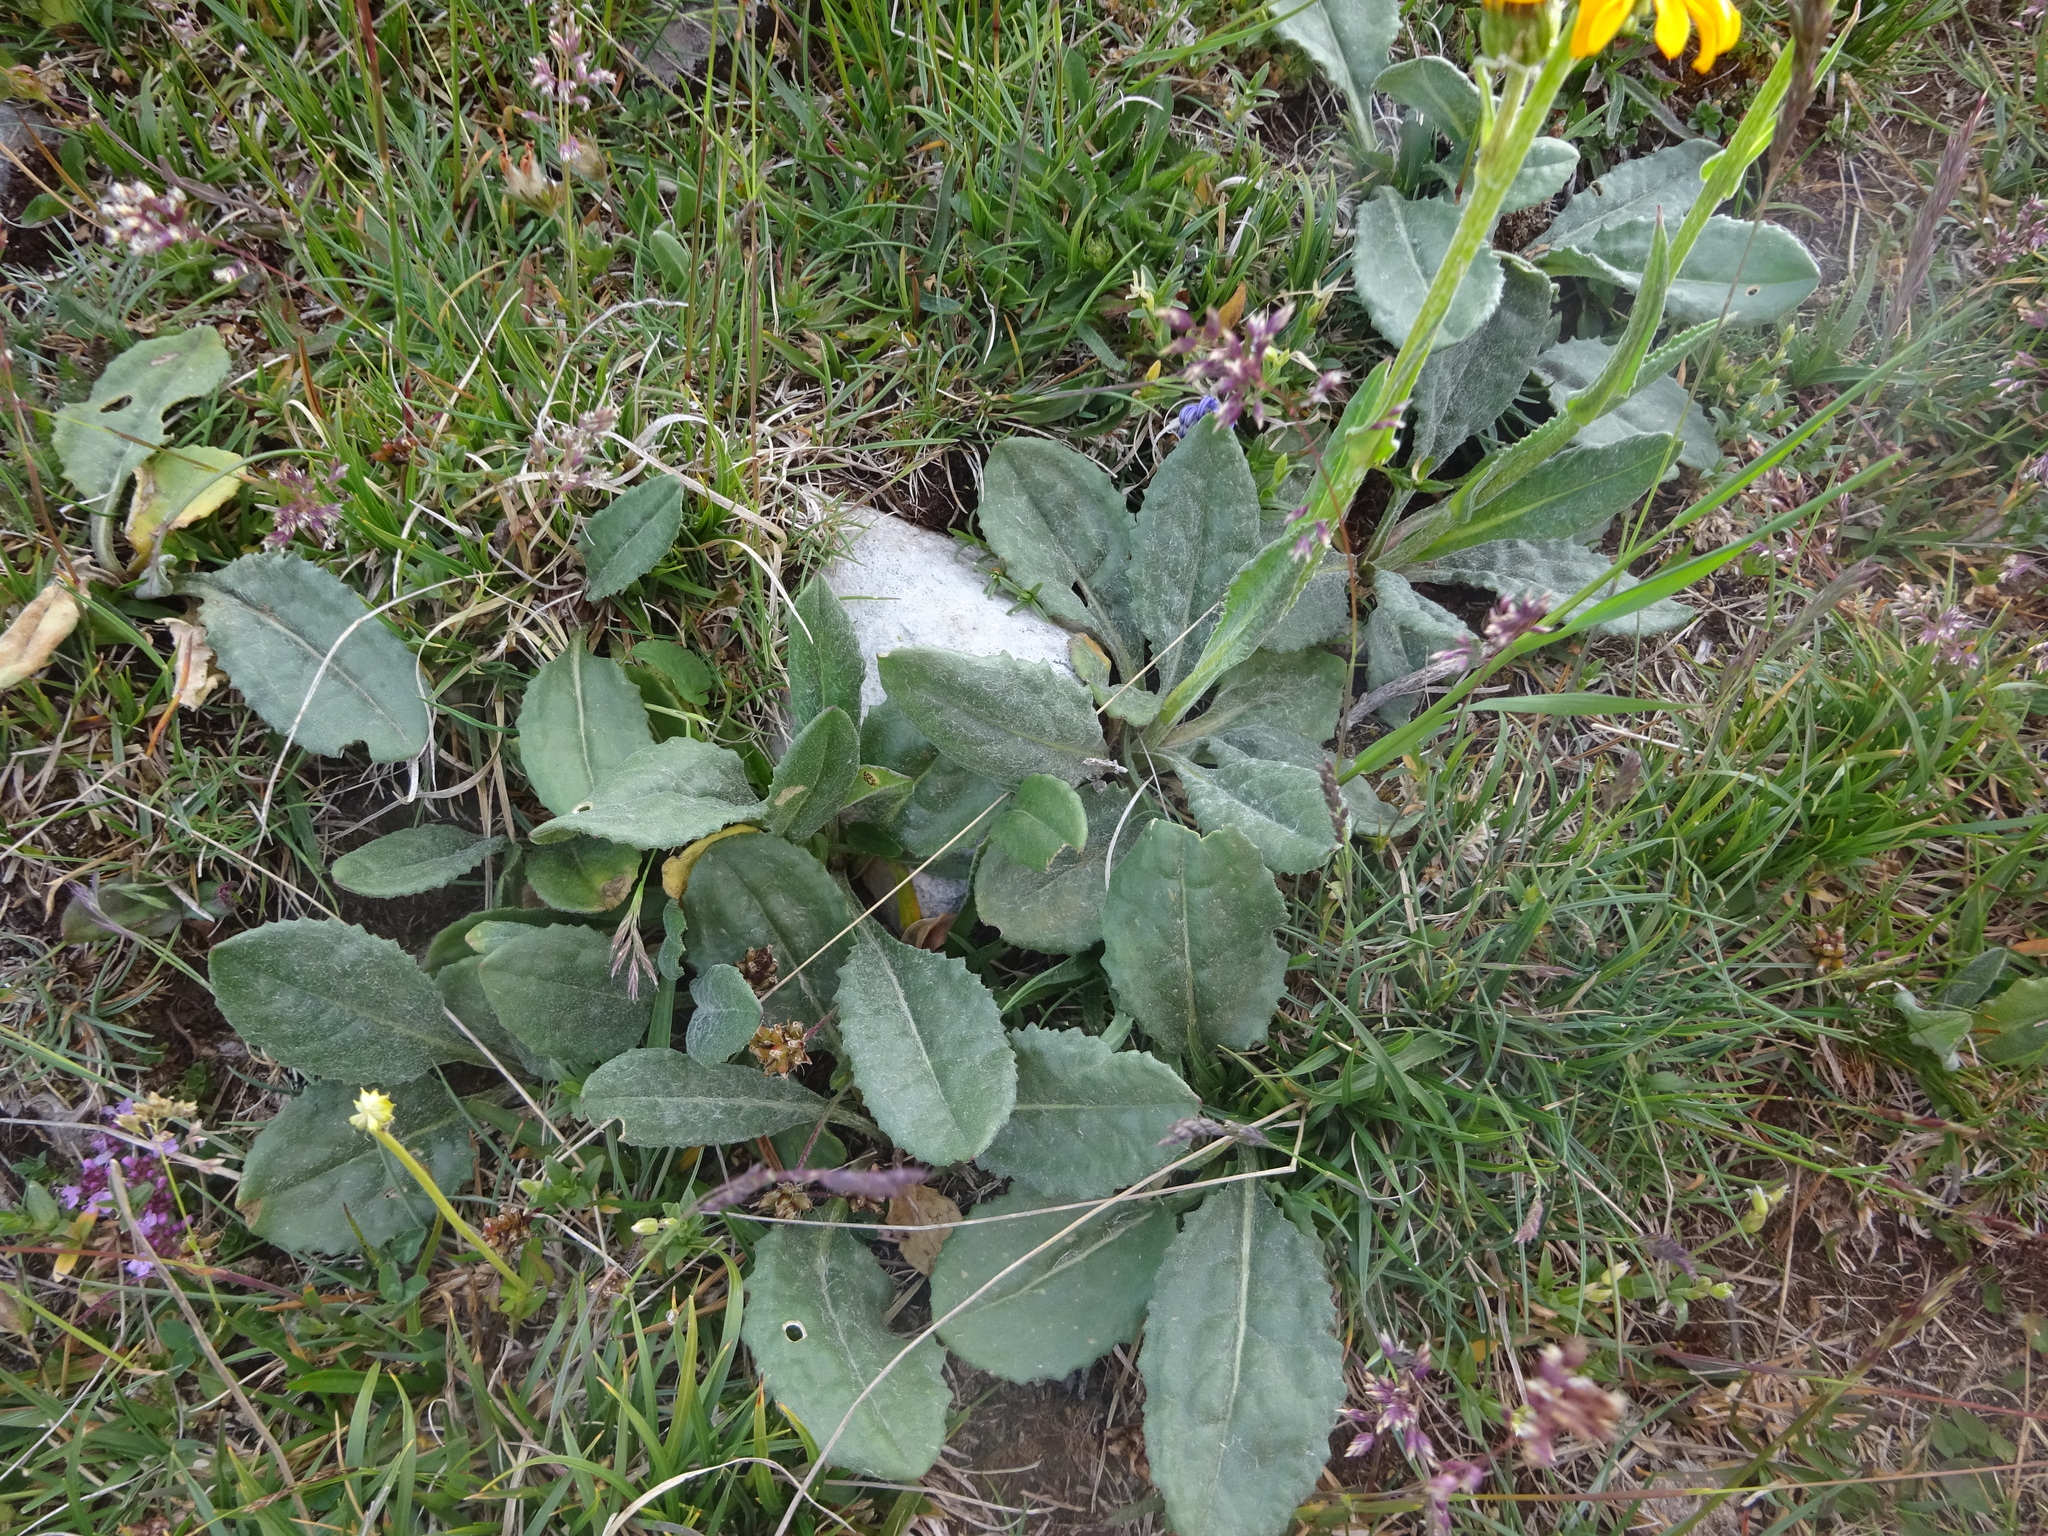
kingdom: Plantae
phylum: Tracheophyta
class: Magnoliopsida
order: Asterales
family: Asteraceae
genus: Senecio
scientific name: Senecio doronicum
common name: Chamois ragwort
